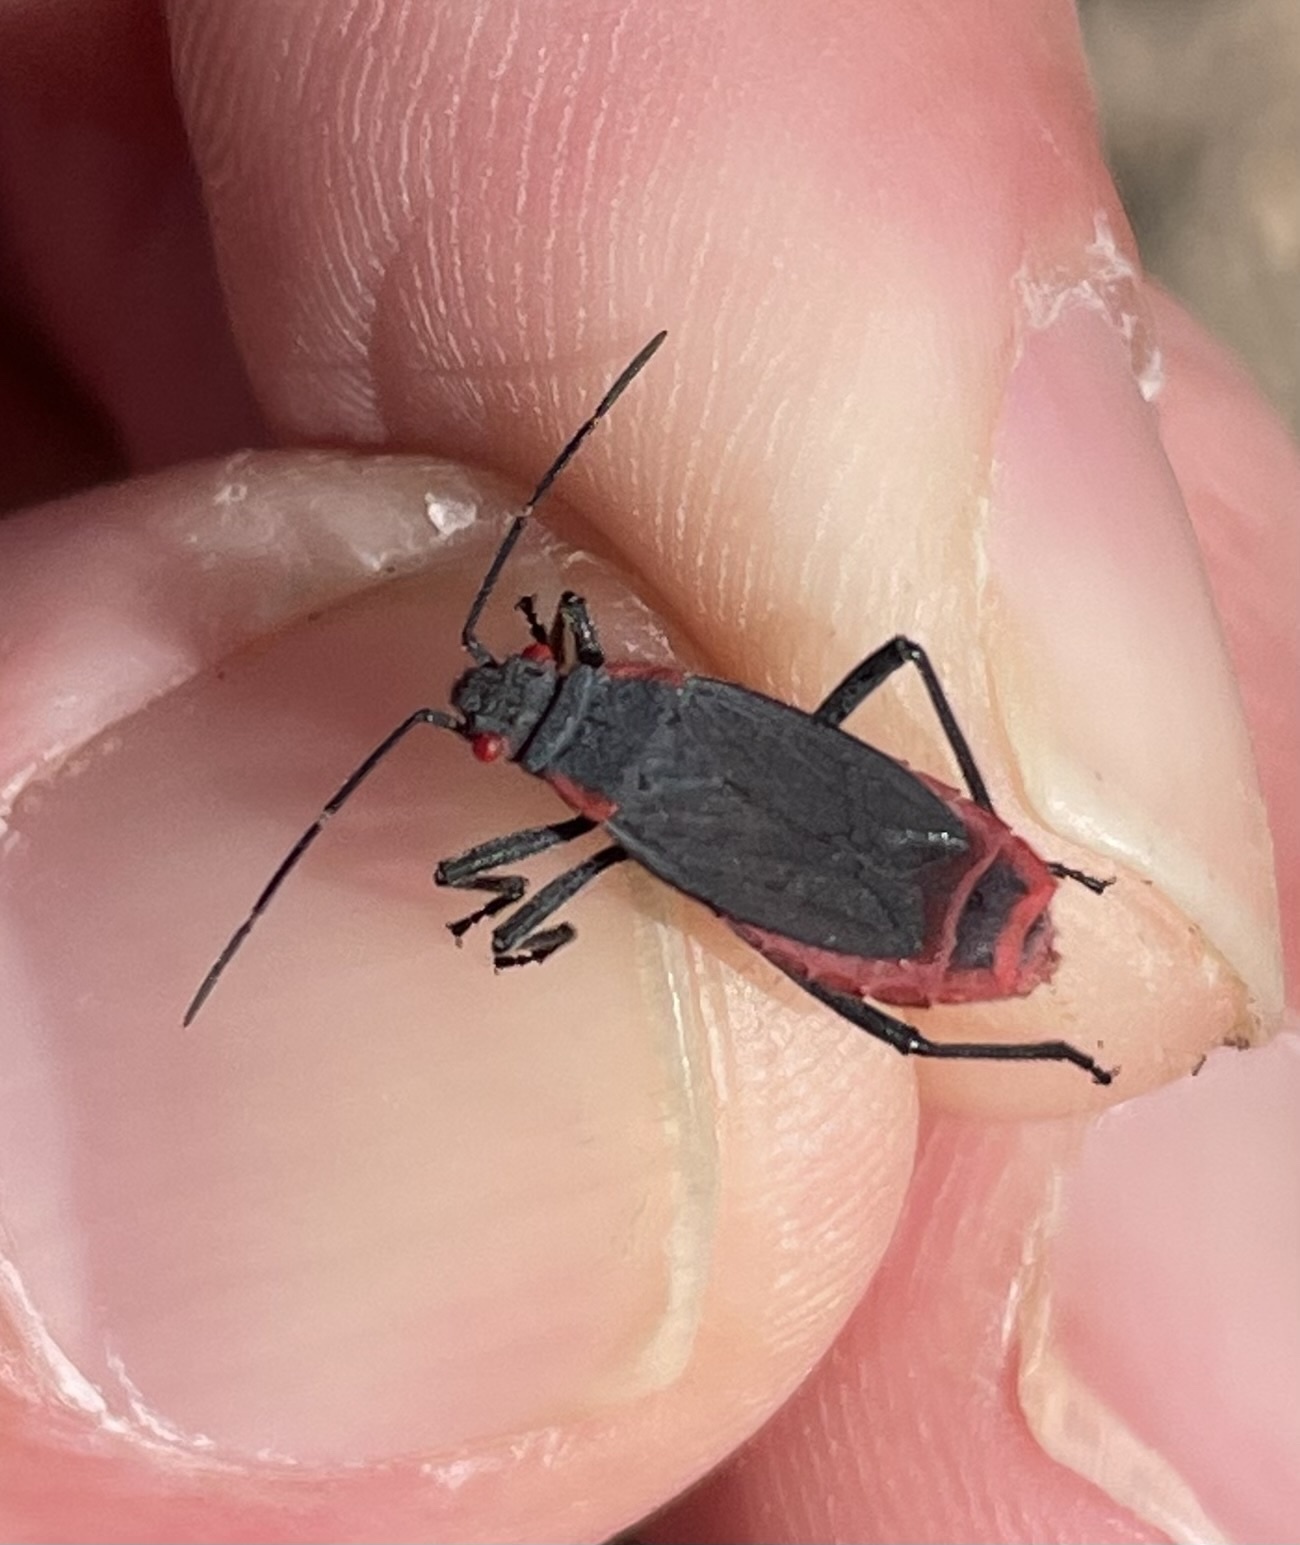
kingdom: Animalia
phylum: Arthropoda
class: Insecta
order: Hemiptera
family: Rhopalidae
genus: Jadera
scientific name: Jadera haematoloma
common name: Red-shouldered bug
